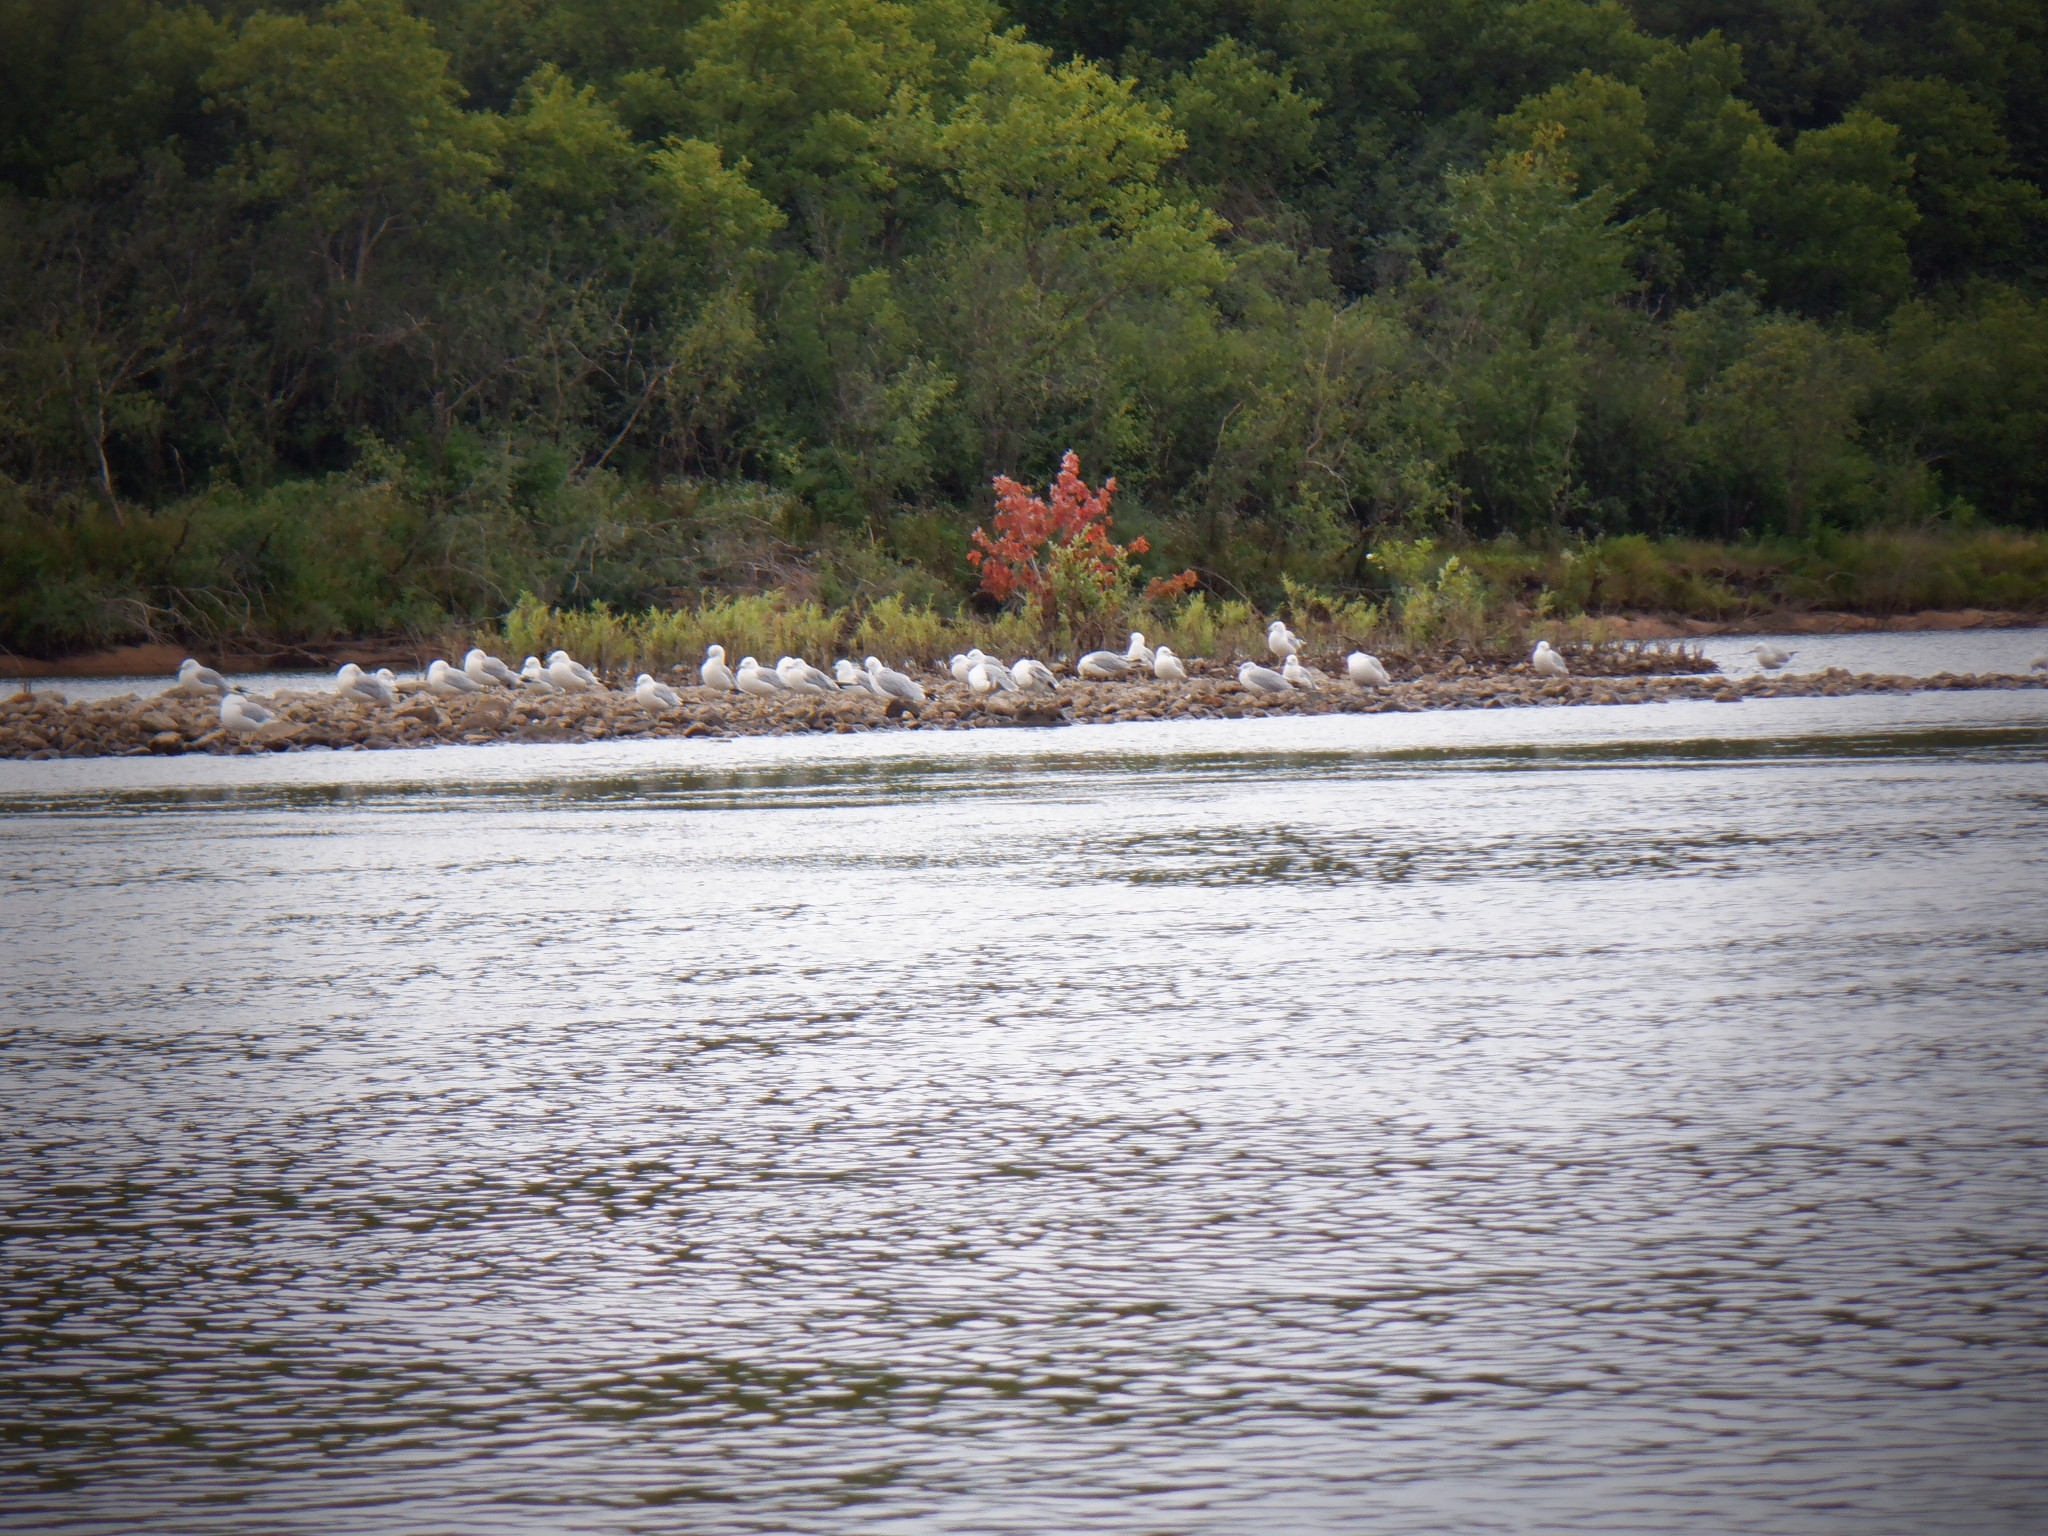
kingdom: Animalia
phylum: Chordata
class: Aves
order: Charadriiformes
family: Laridae
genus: Larus
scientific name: Larus argentatus
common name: Herring gull
